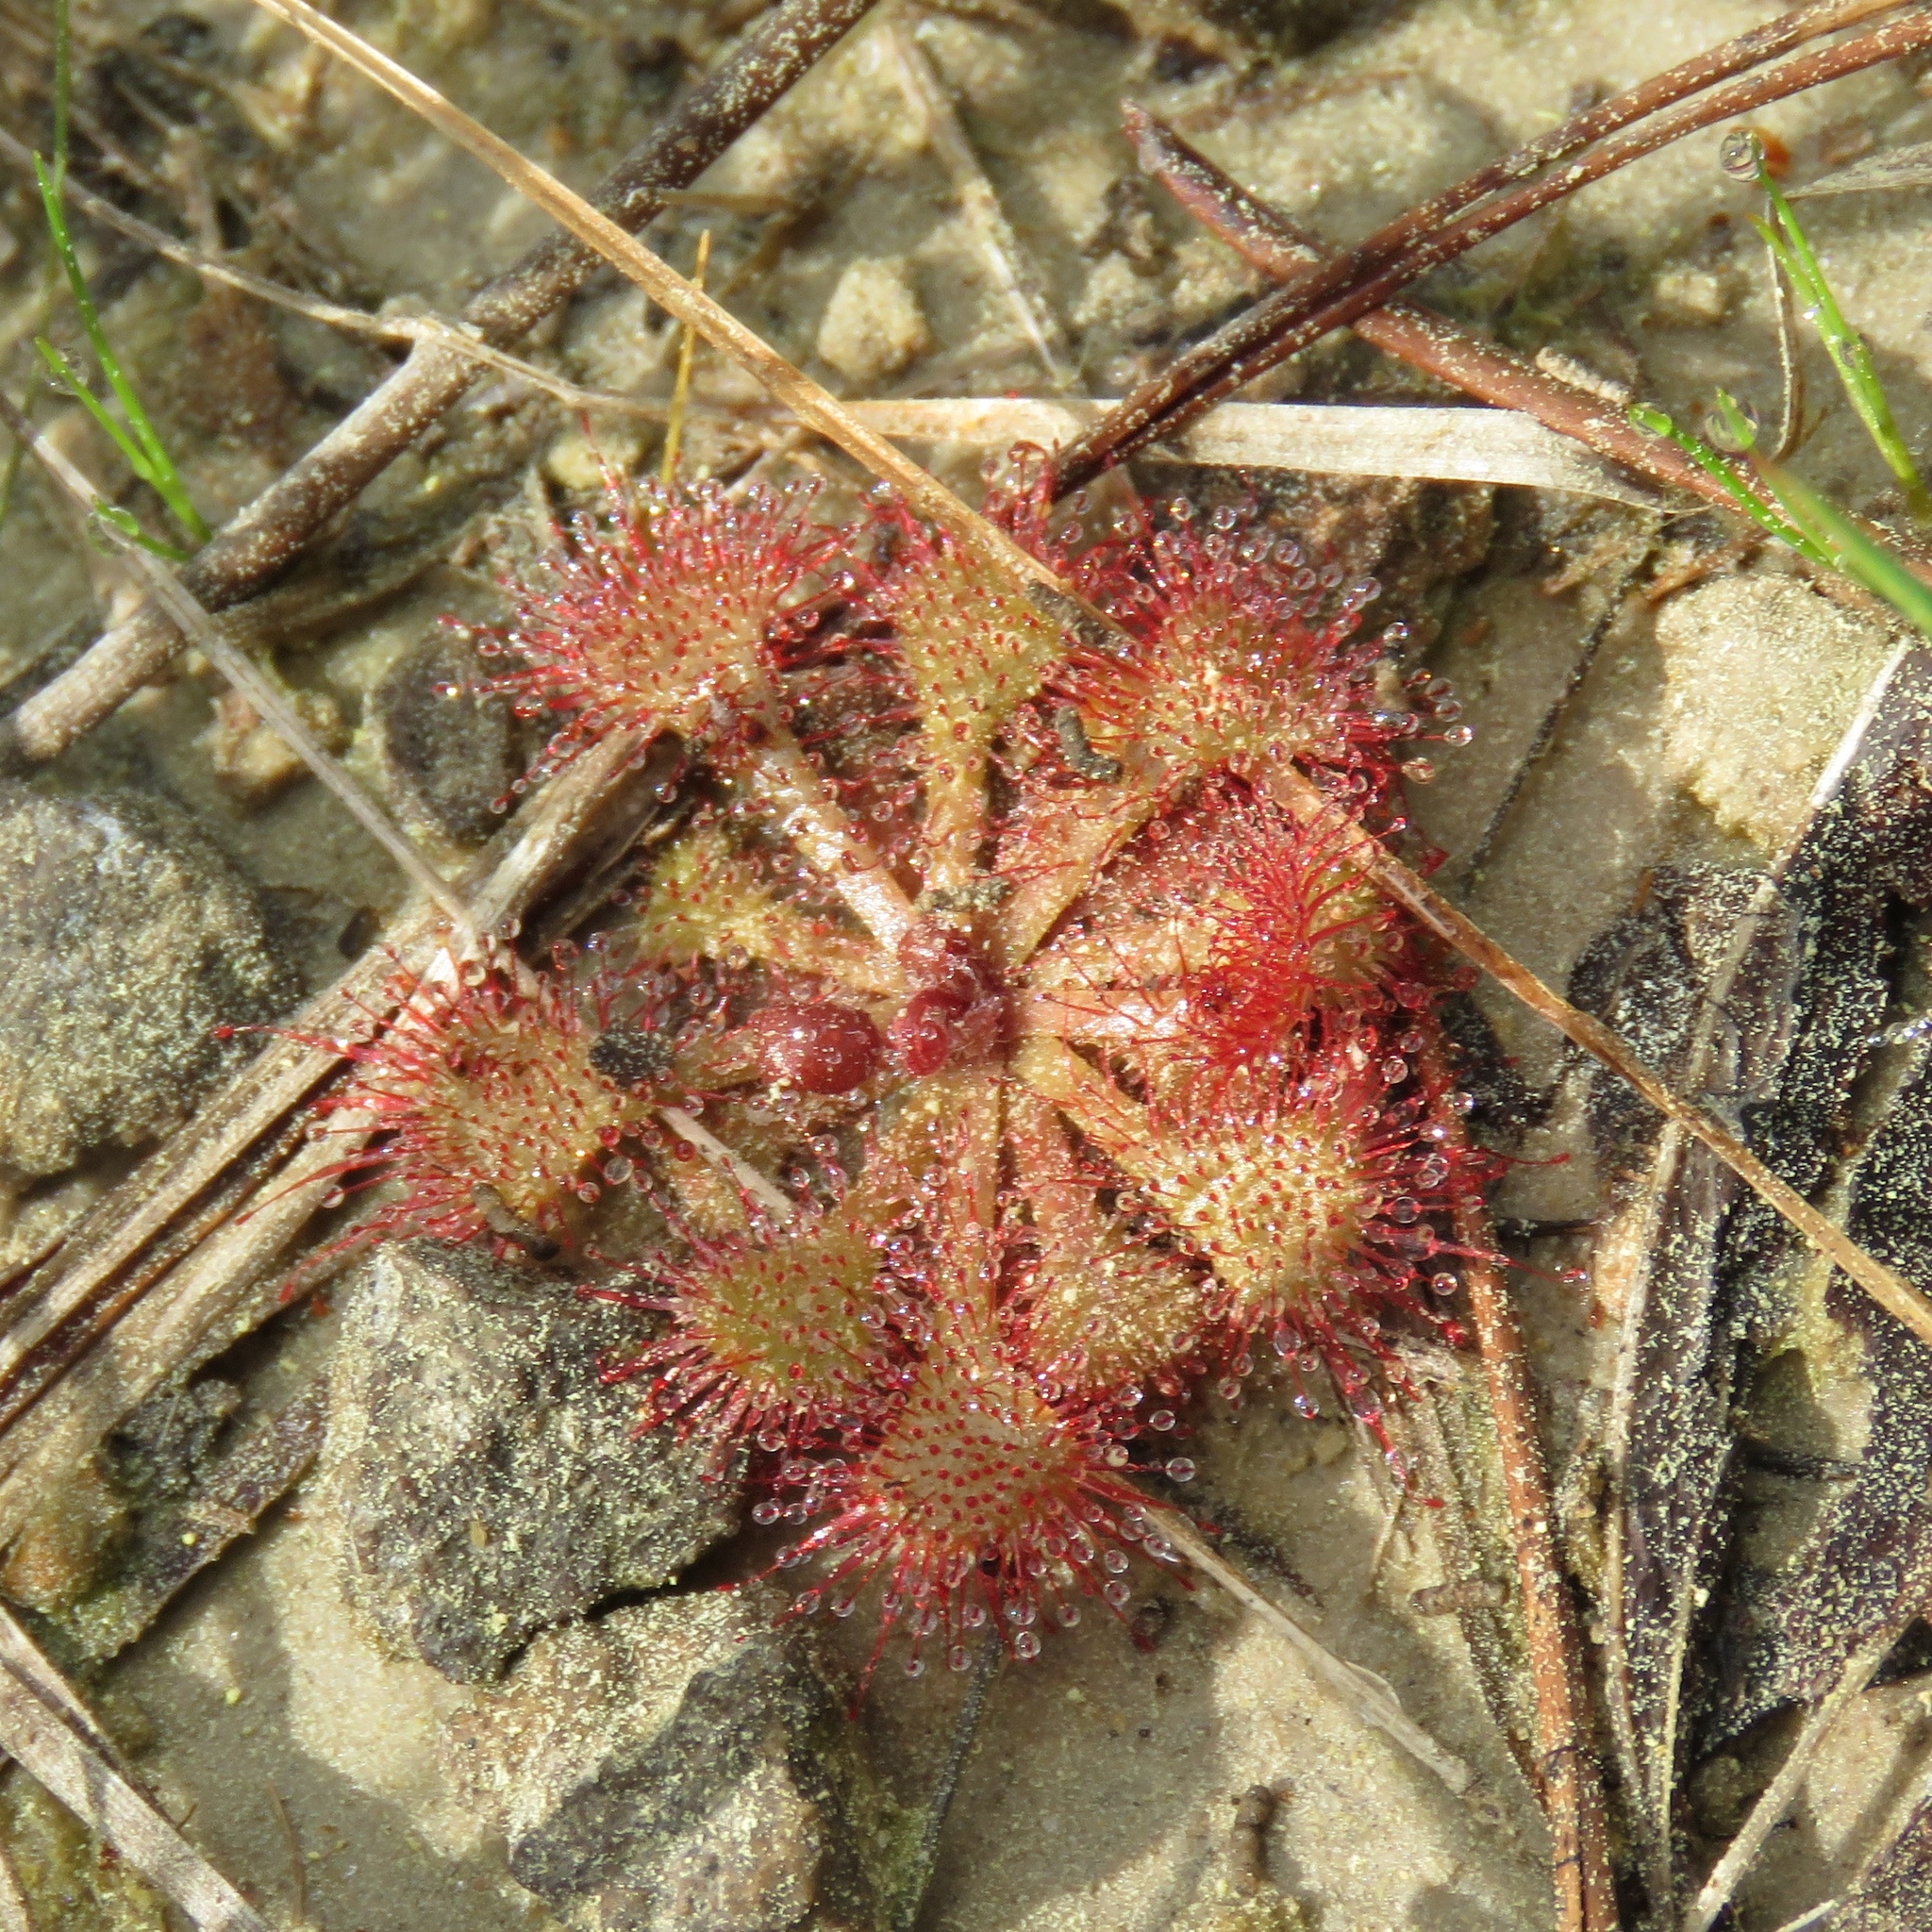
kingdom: Plantae
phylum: Tracheophyta
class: Magnoliopsida
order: Caryophyllales
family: Droseraceae
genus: Drosera
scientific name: Drosera capillaris
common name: Pink sundew
